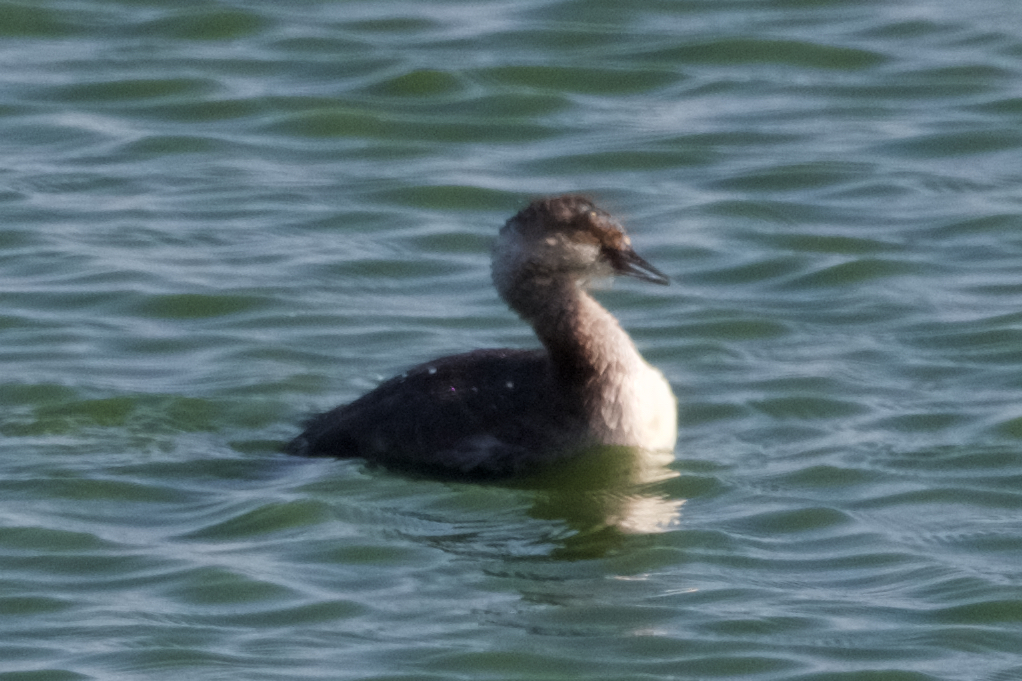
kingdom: Animalia
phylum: Chordata
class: Aves
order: Podicipediformes
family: Podicipedidae
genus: Podiceps
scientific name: Podiceps nigricollis
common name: Black-necked grebe
